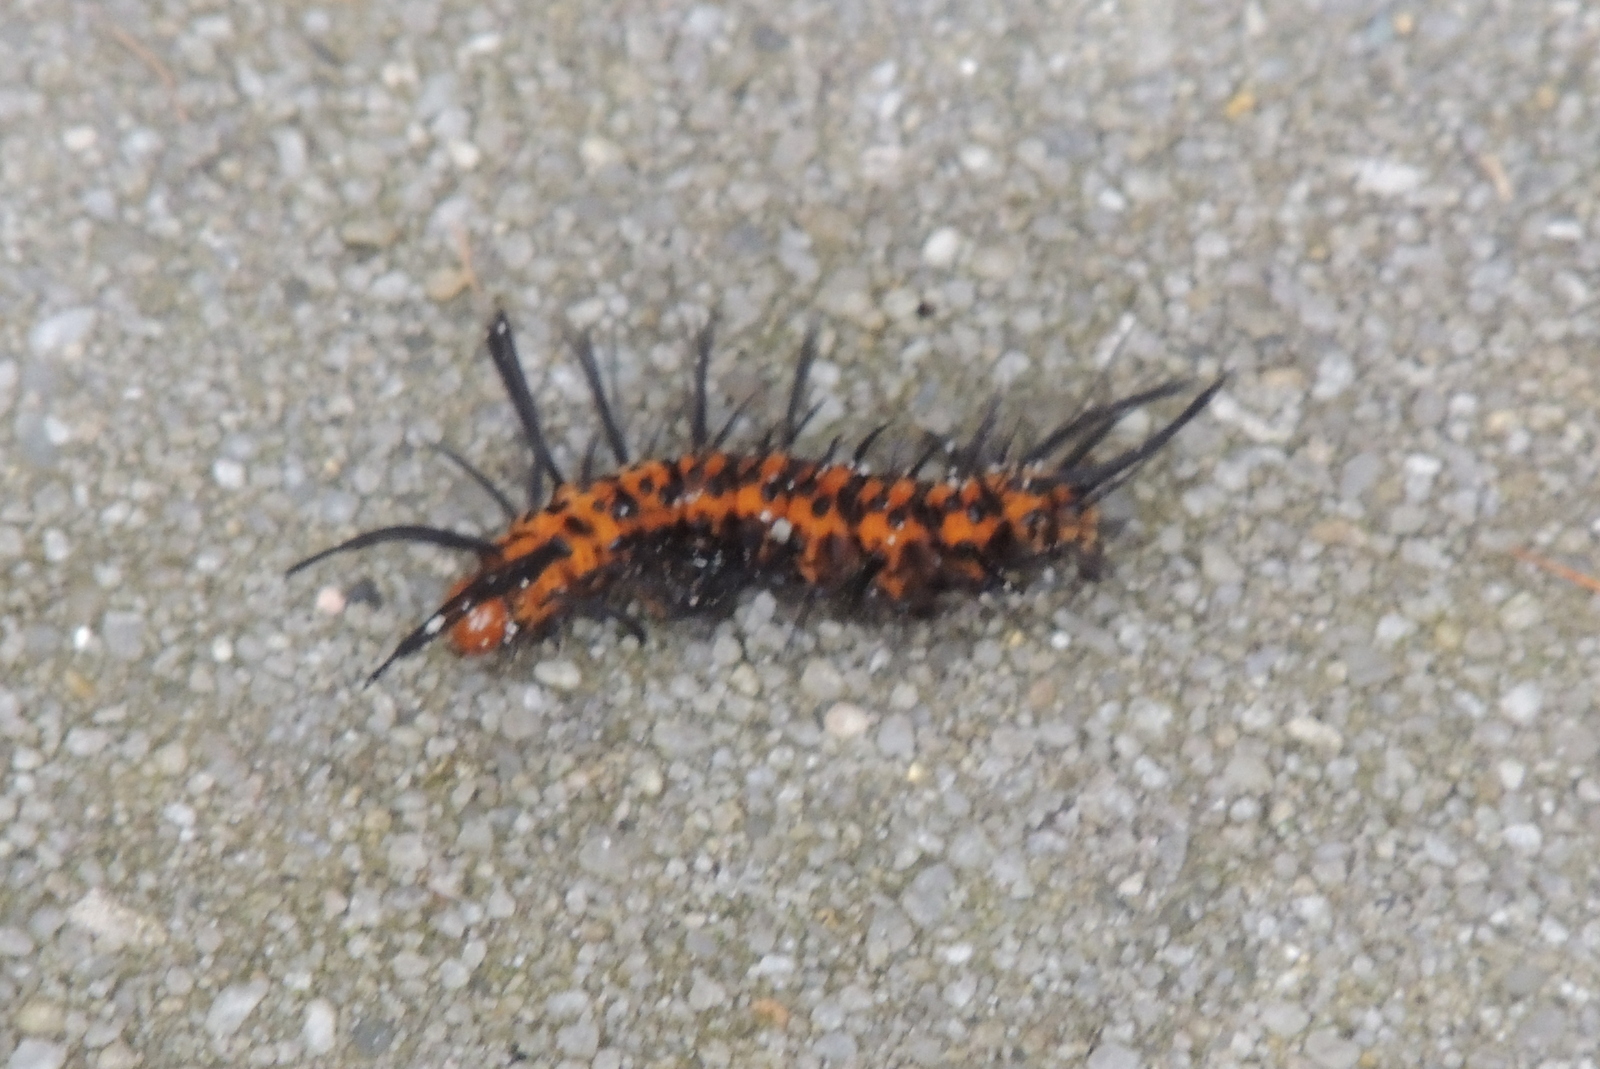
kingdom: Animalia
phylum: Arthropoda
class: Insecta
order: Lepidoptera
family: Erebidae
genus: Syntomeida
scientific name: Syntomeida epilais
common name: Polka-dot wasp moth
